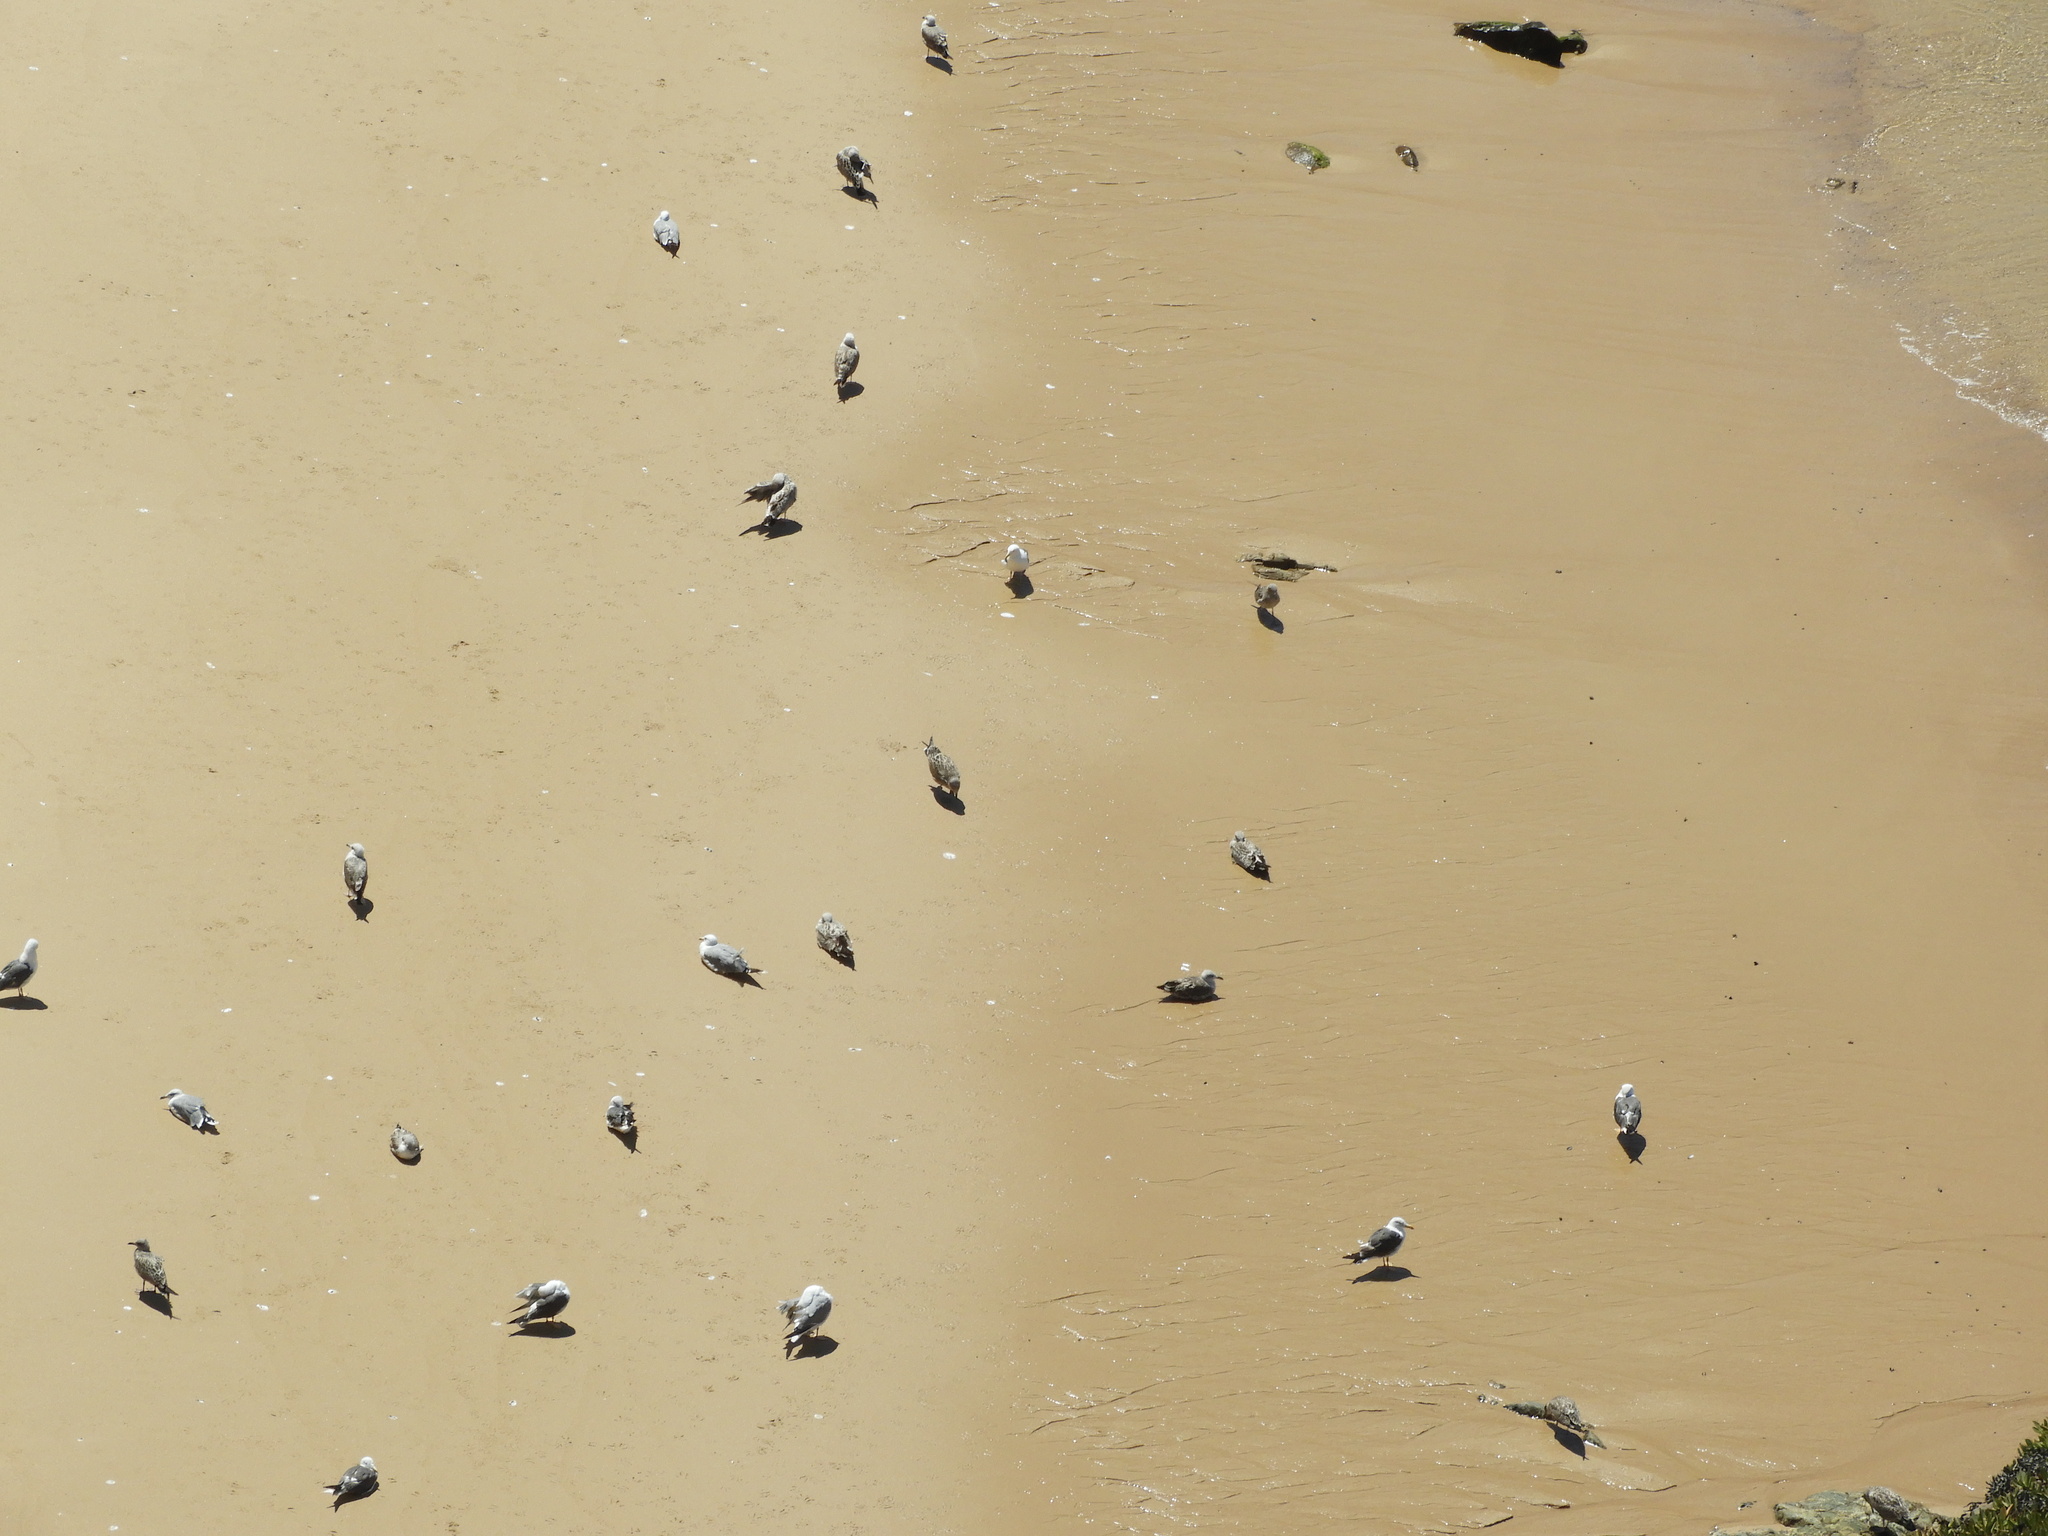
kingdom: Animalia
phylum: Chordata
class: Aves
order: Charadriiformes
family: Laridae
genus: Larus
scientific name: Larus
